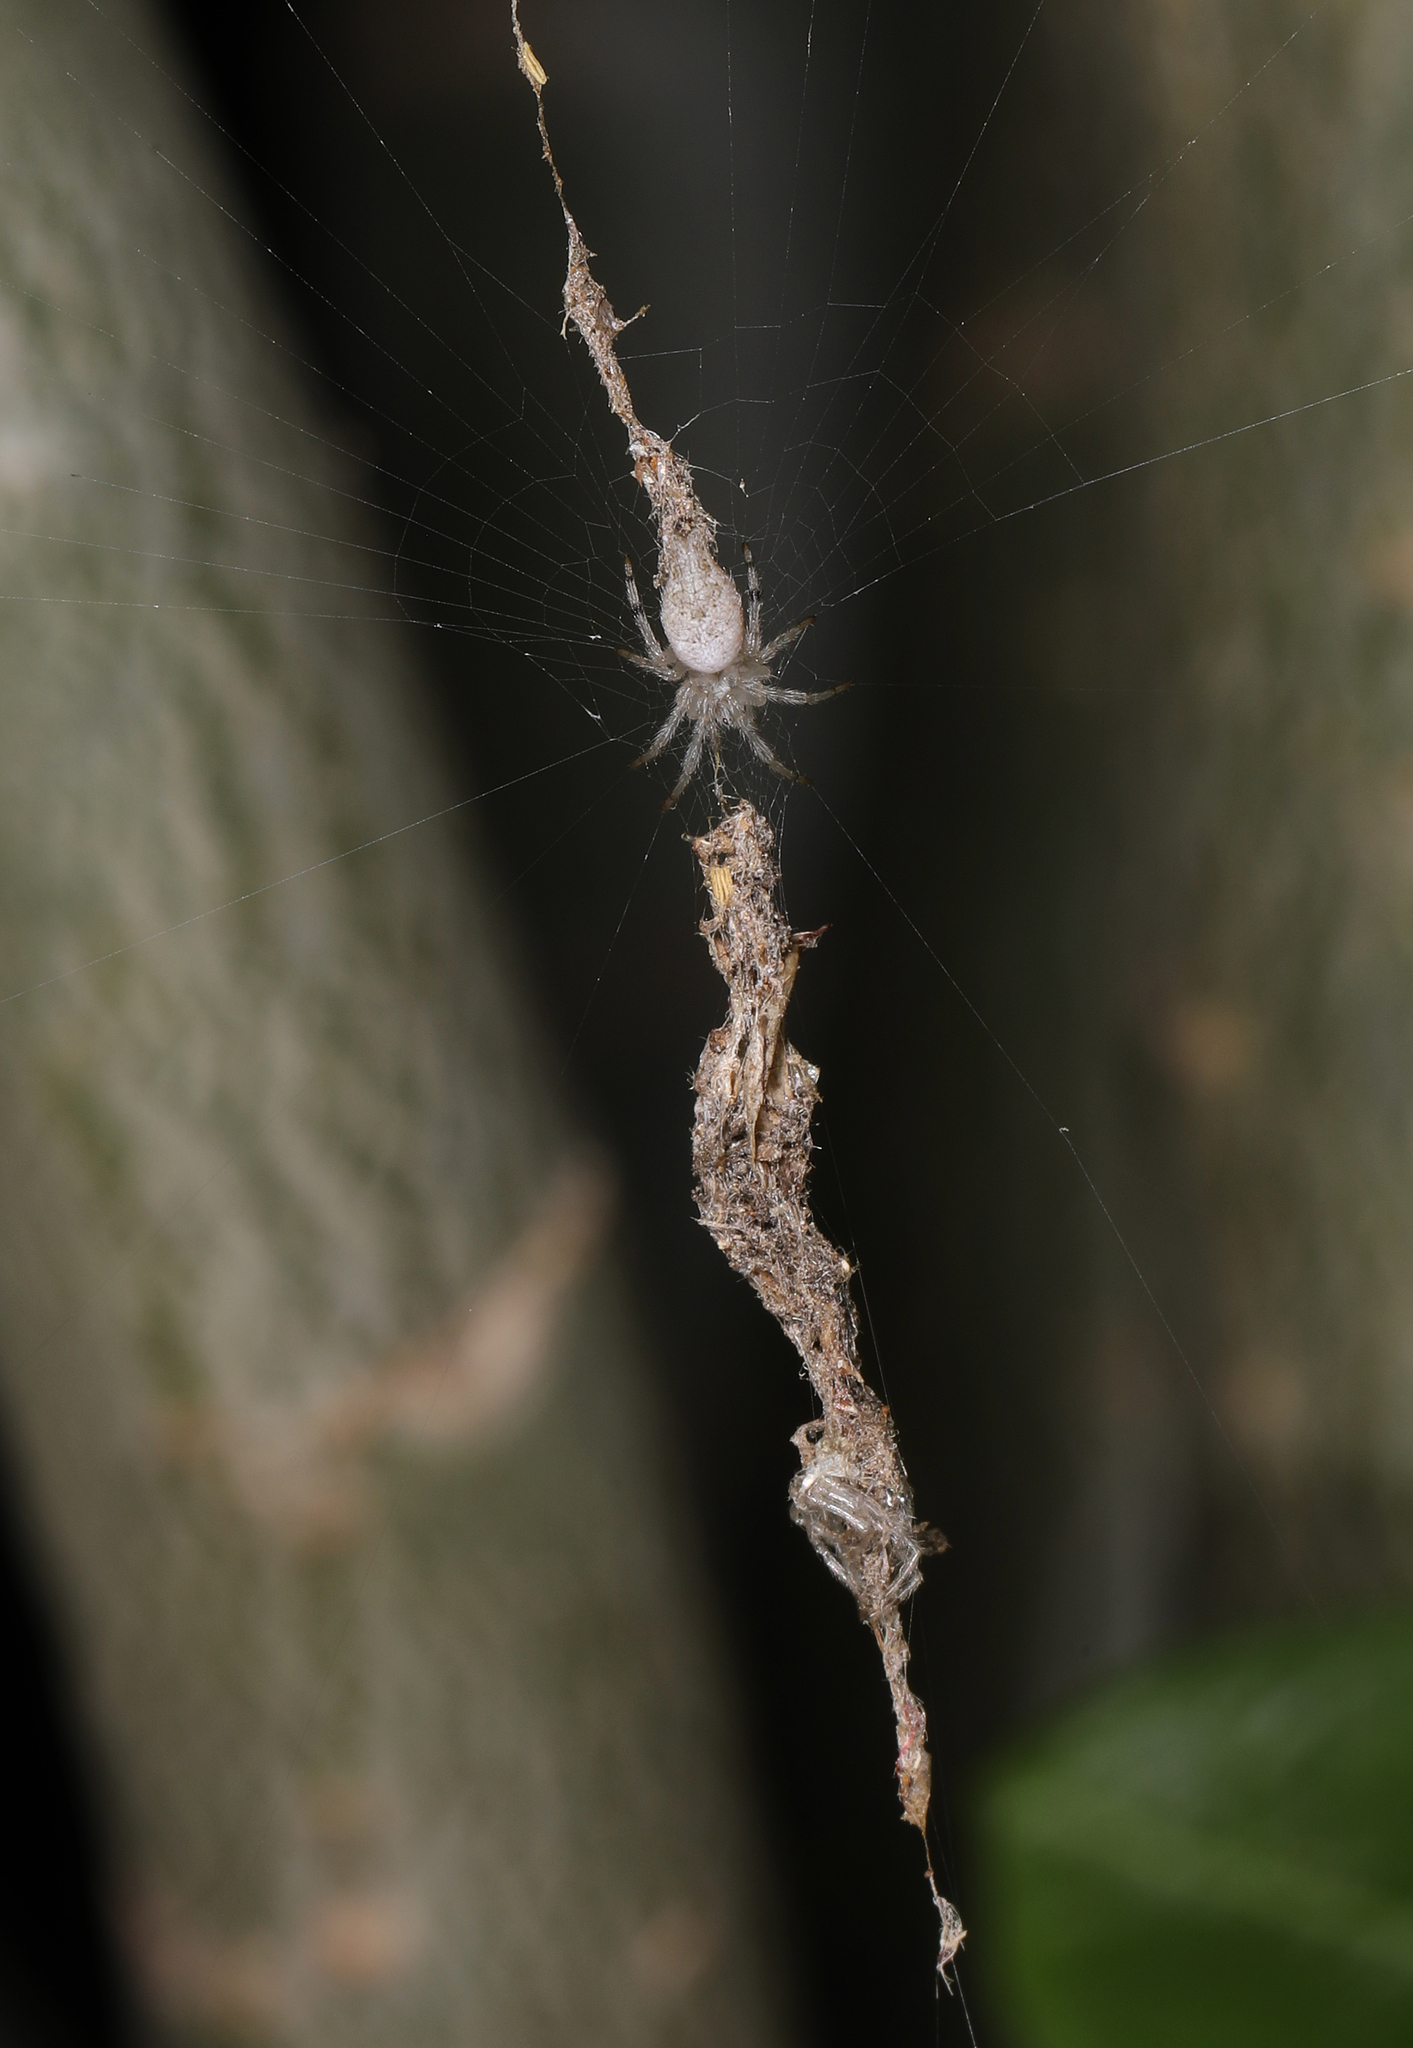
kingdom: Animalia
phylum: Arthropoda
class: Arachnida
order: Araneae
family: Araneidae
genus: Allocyclosa
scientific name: Allocyclosa bifurca
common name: Orb weavers
